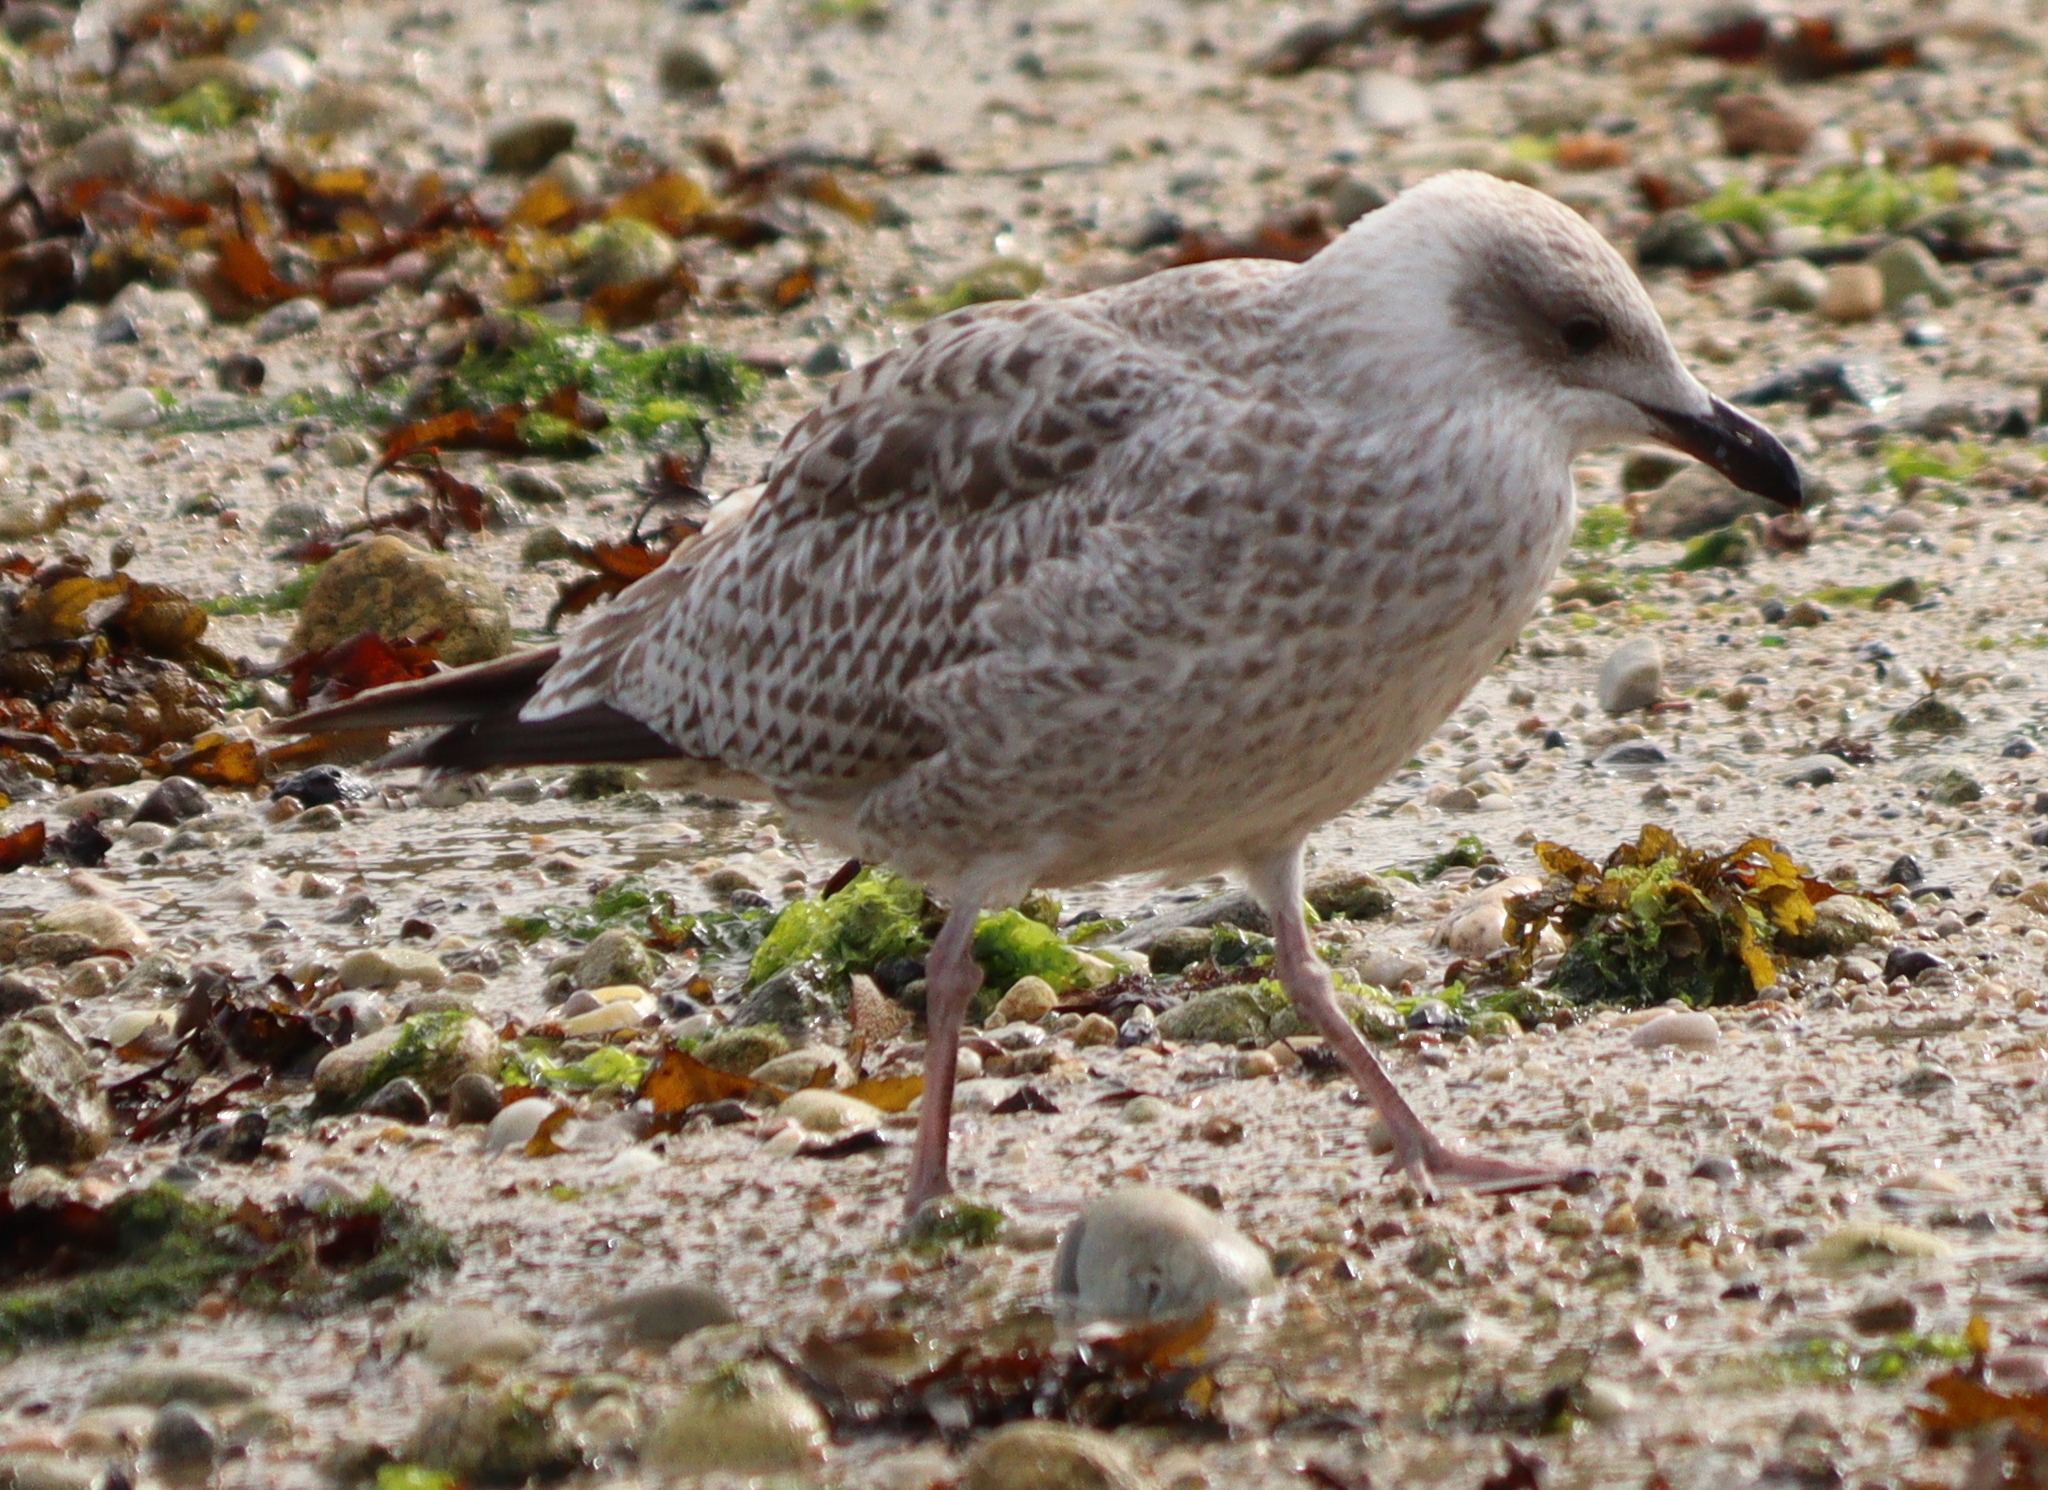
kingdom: Animalia
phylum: Chordata
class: Aves
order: Charadriiformes
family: Laridae
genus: Larus
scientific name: Larus argentatus
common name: Herring gull
